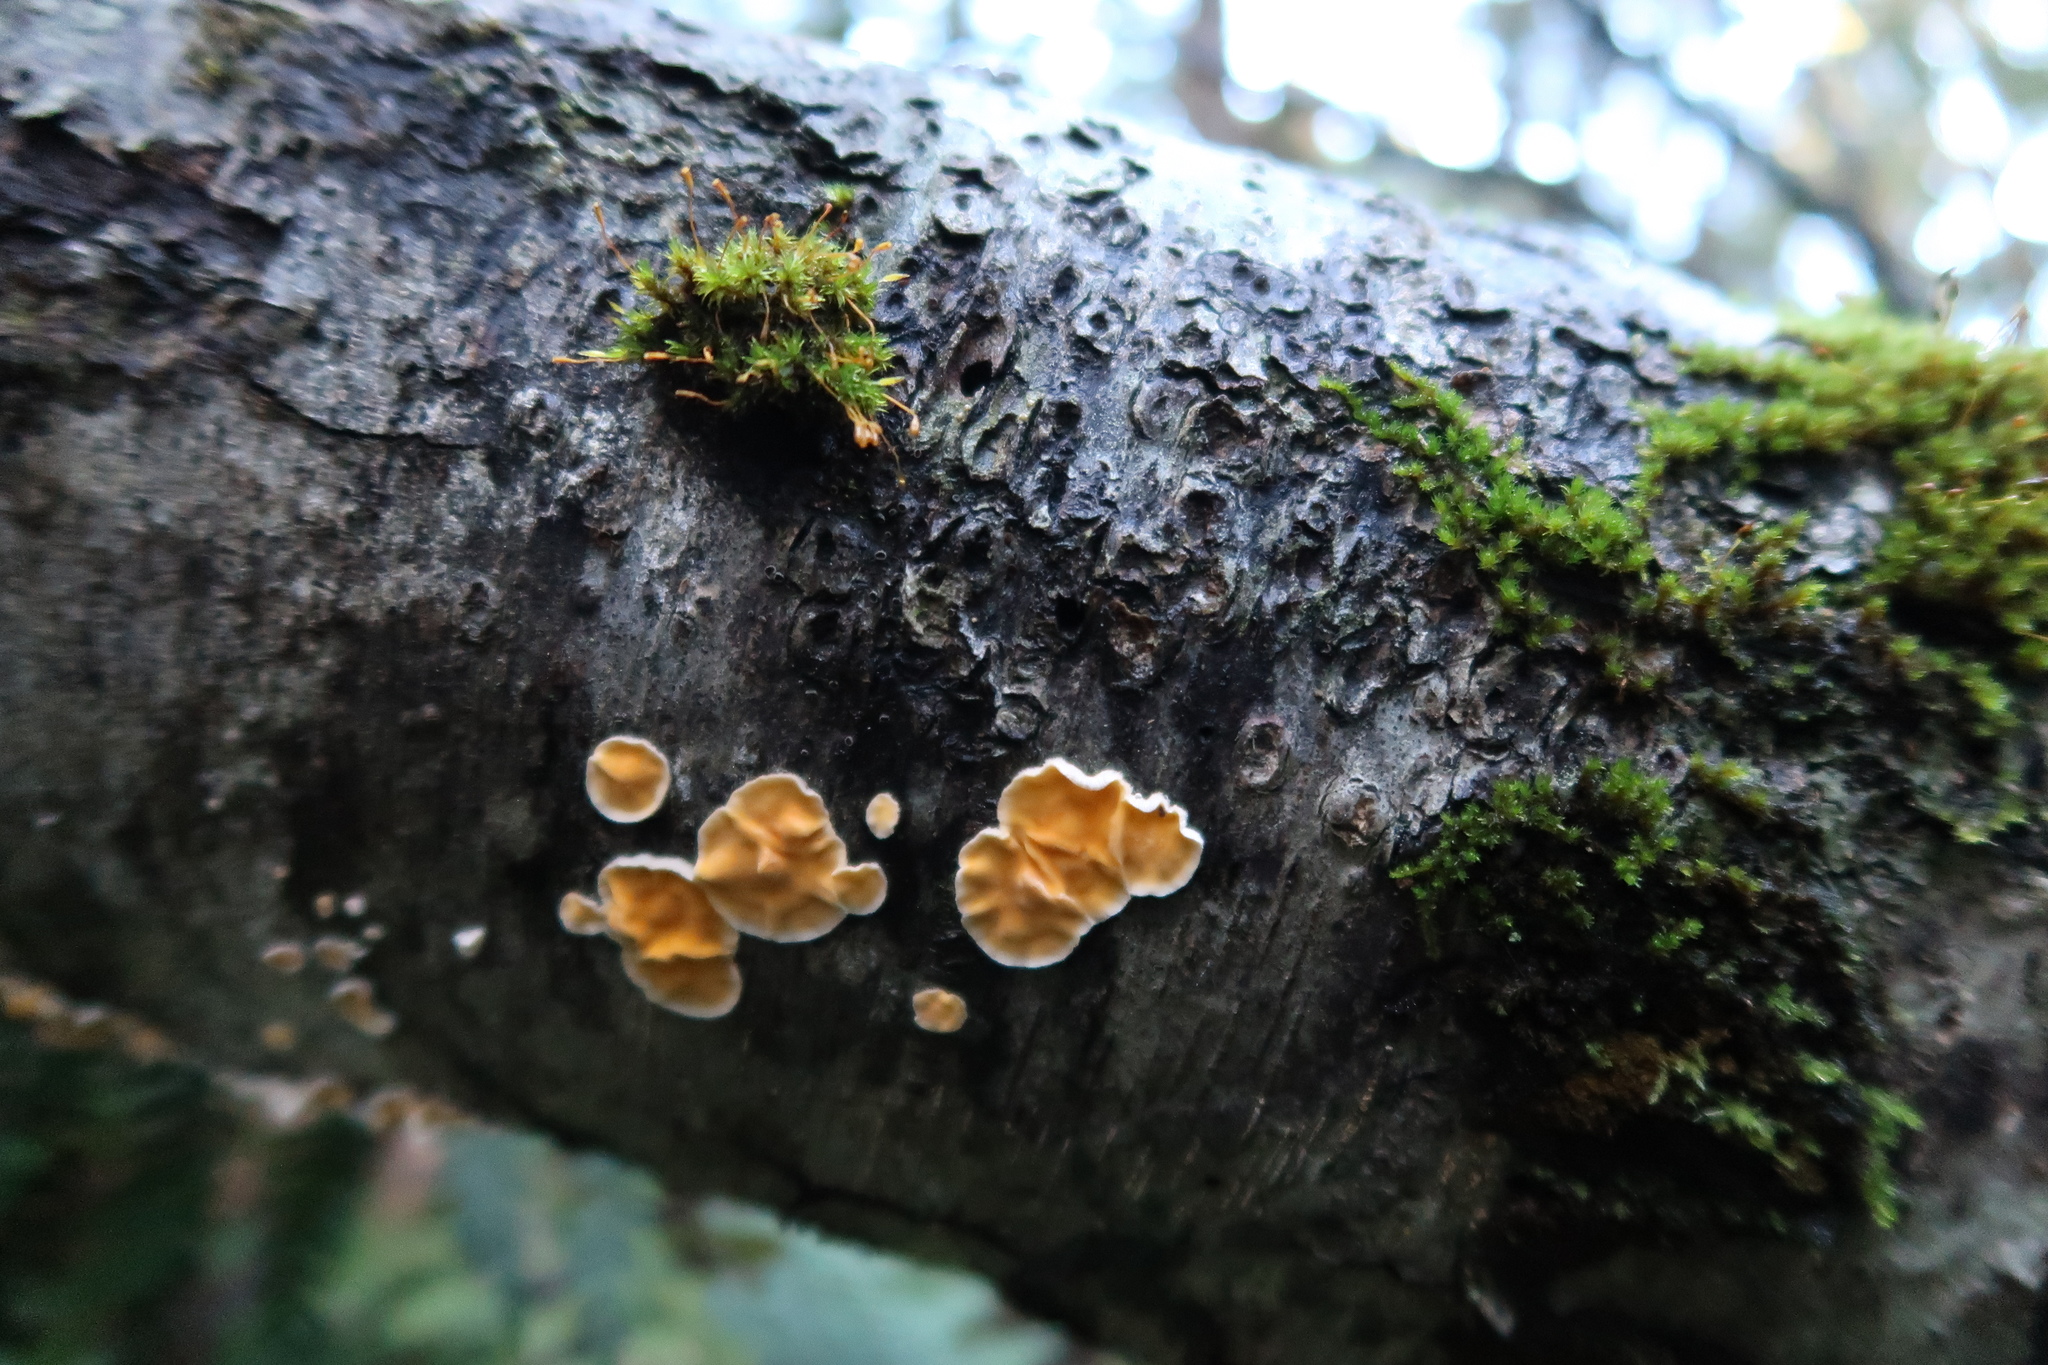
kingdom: Fungi
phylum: Basidiomycota
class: Agaricomycetes
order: Russulales
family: Stereaceae
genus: Stereodiscus
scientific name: Stereodiscus limonisporus
